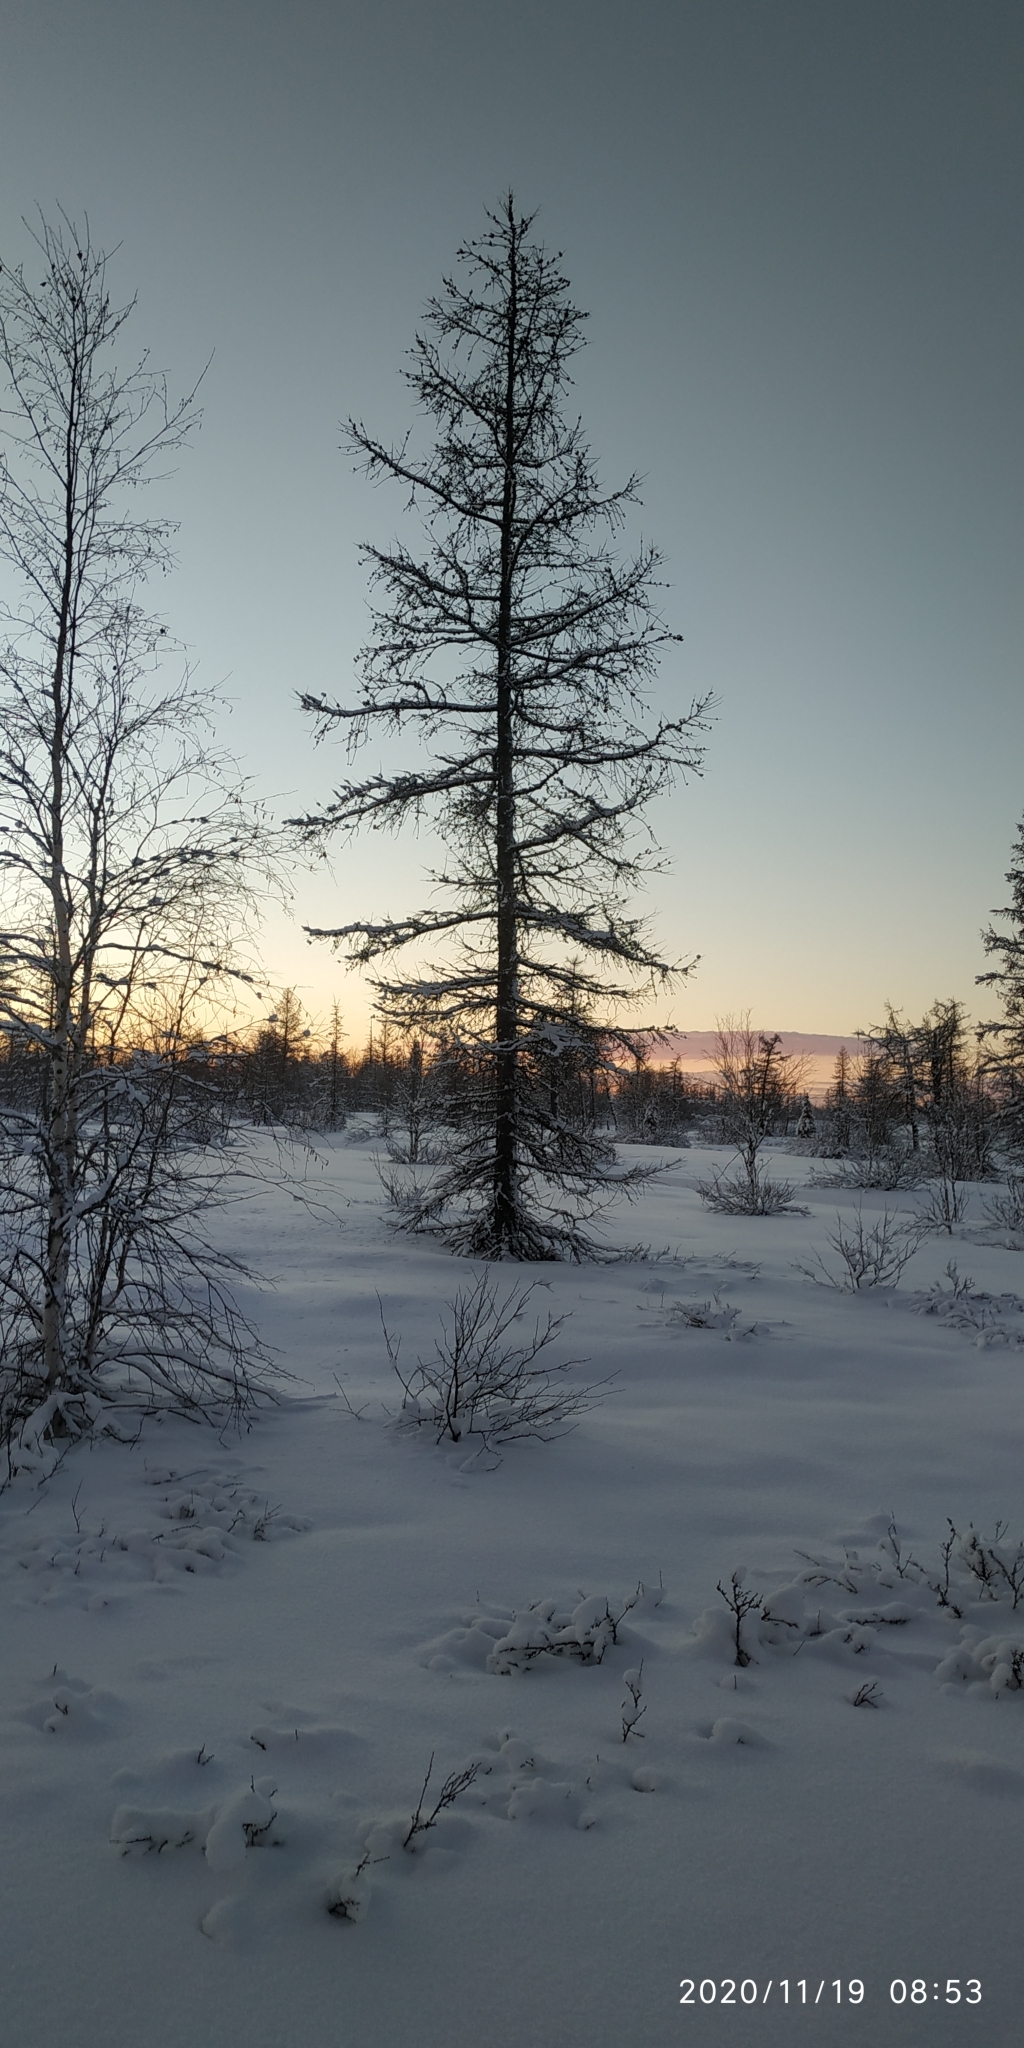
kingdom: Plantae
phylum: Tracheophyta
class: Pinopsida
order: Pinales
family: Pinaceae
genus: Larix
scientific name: Larix sibirica
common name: Siberian larch
